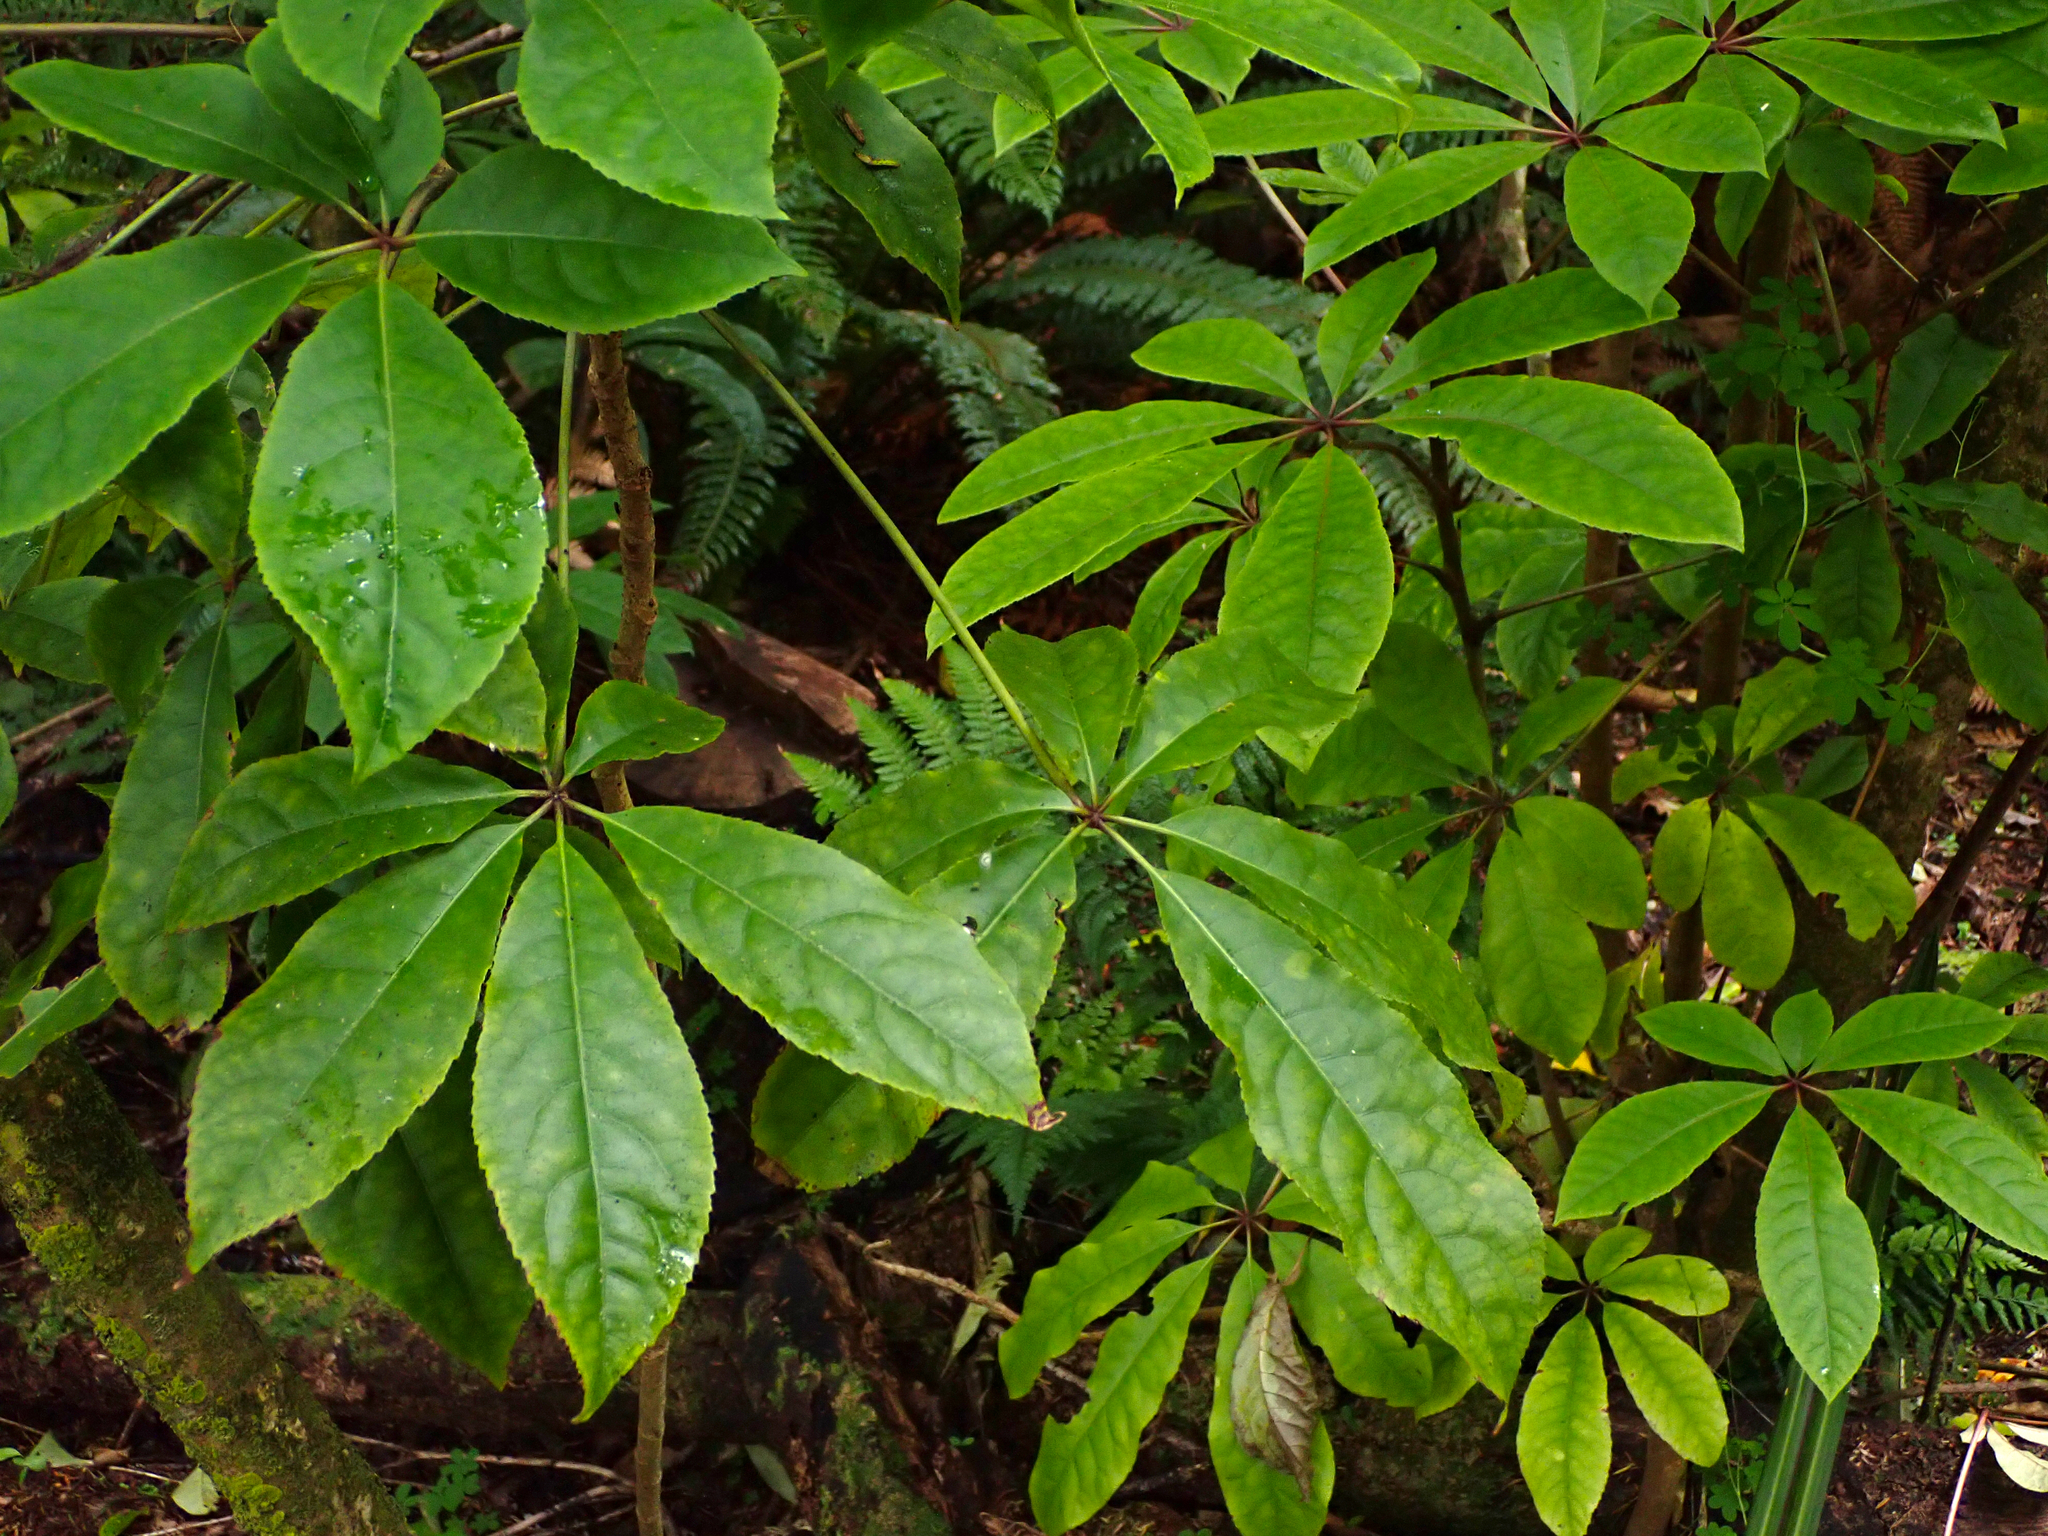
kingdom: Plantae
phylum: Tracheophyta
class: Magnoliopsida
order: Apiales
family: Araliaceae
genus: Schefflera
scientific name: Schefflera digitata
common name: Pate
